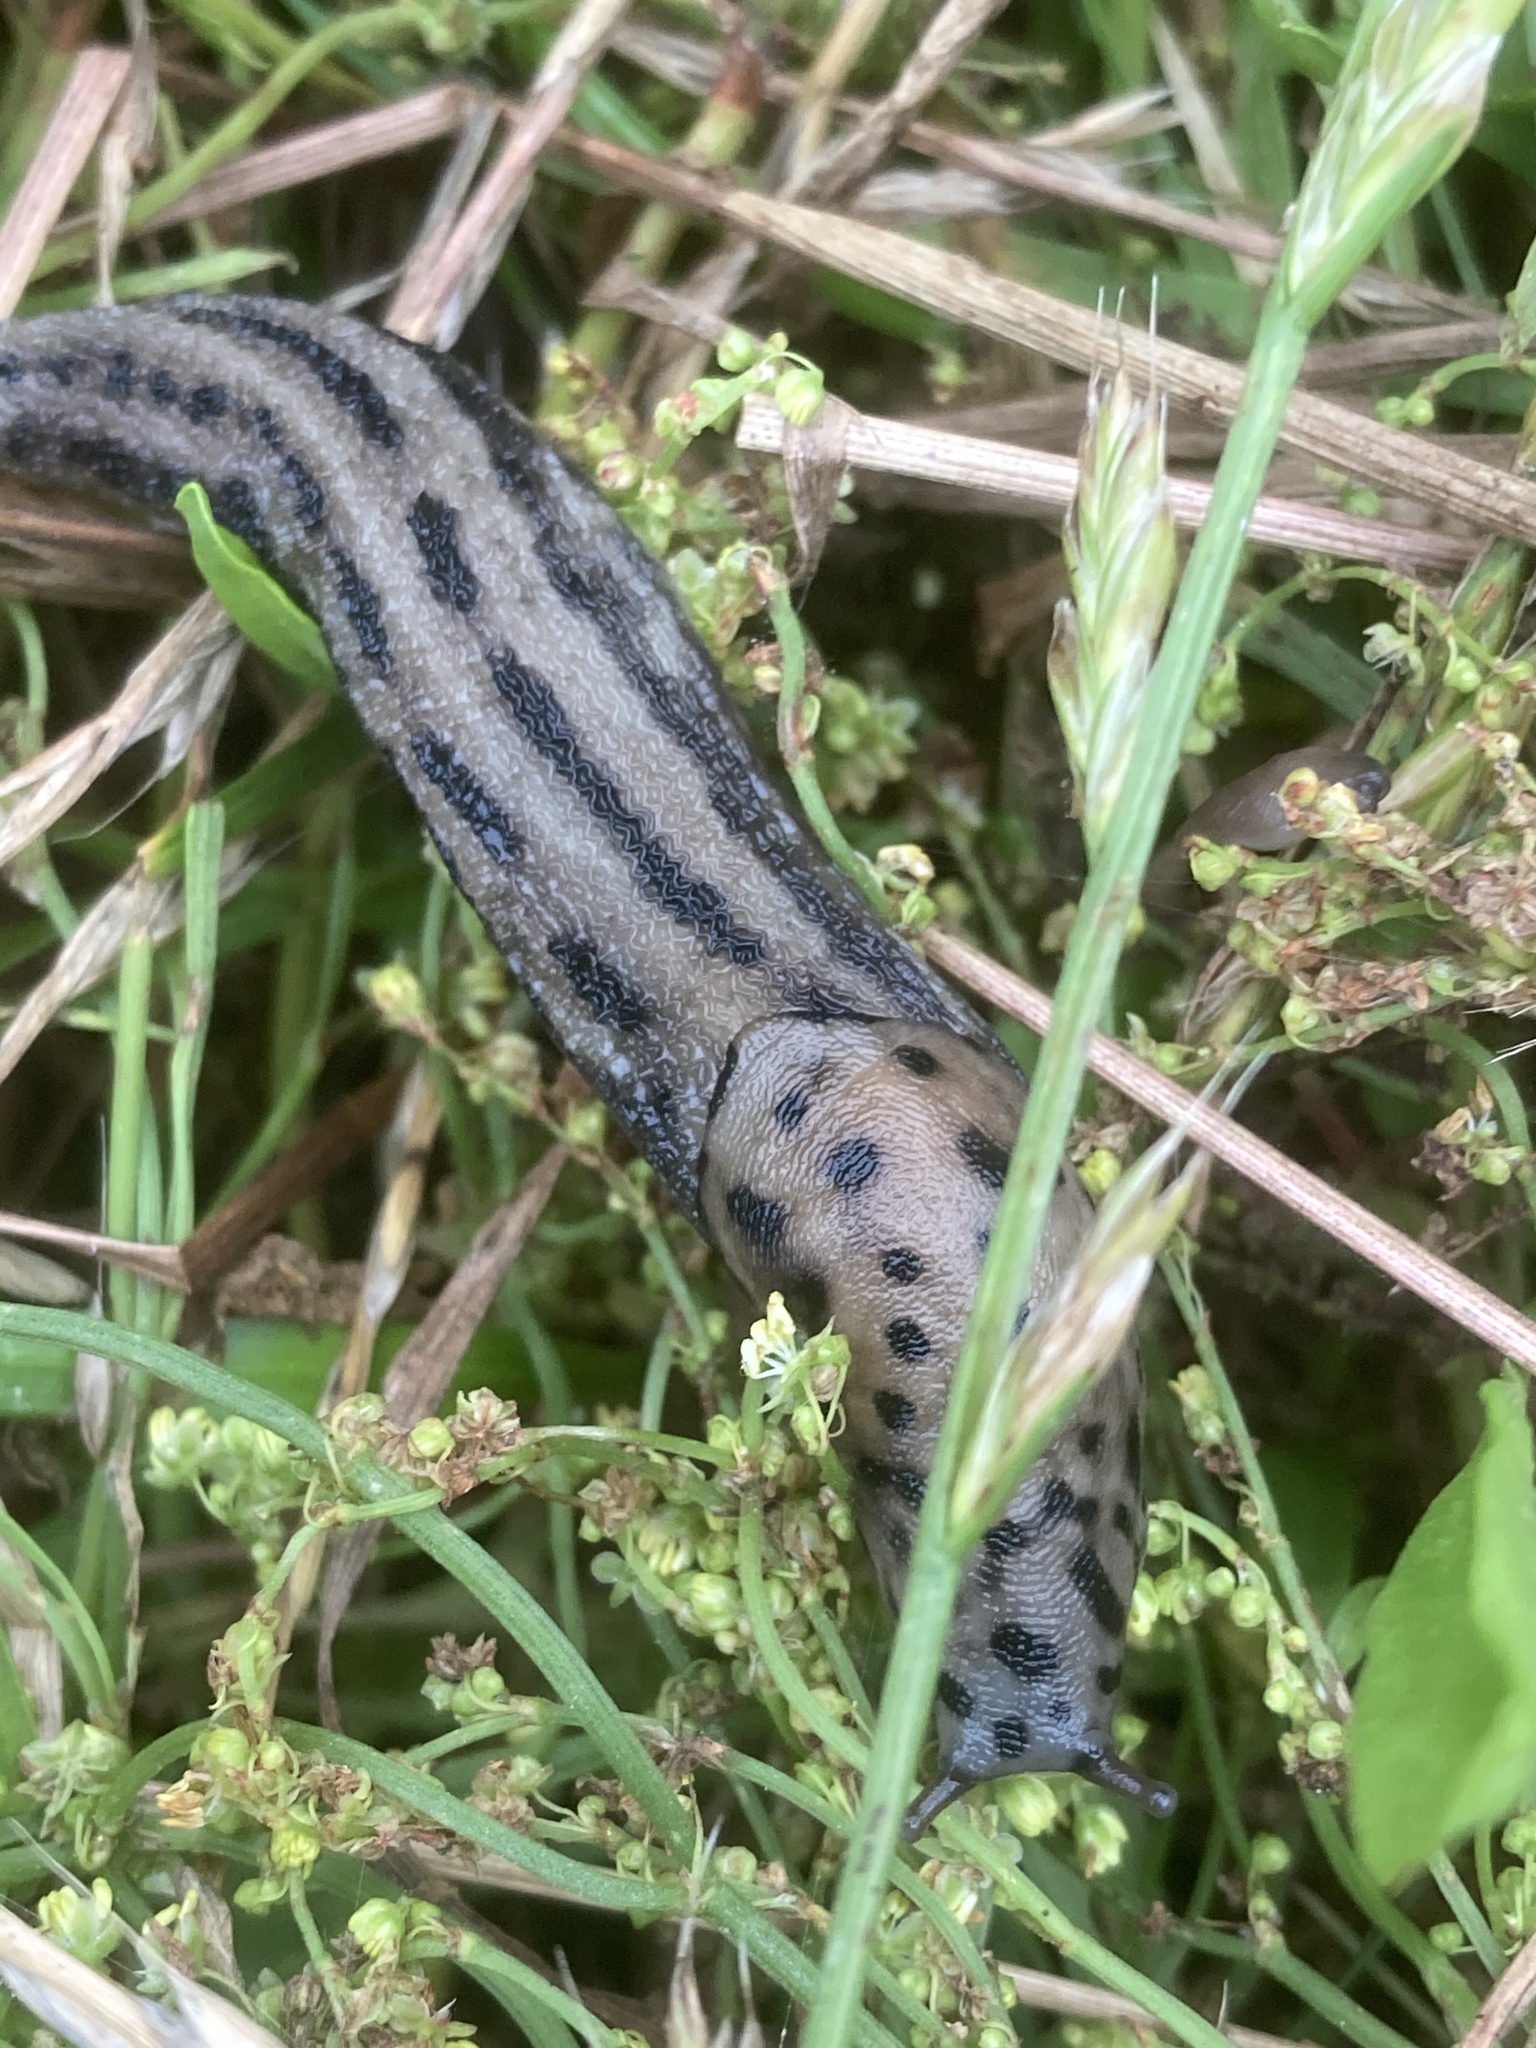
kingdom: Animalia
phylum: Mollusca
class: Gastropoda
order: Stylommatophora
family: Limacidae
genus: Limax
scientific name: Limax maximus
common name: Great grey slug
